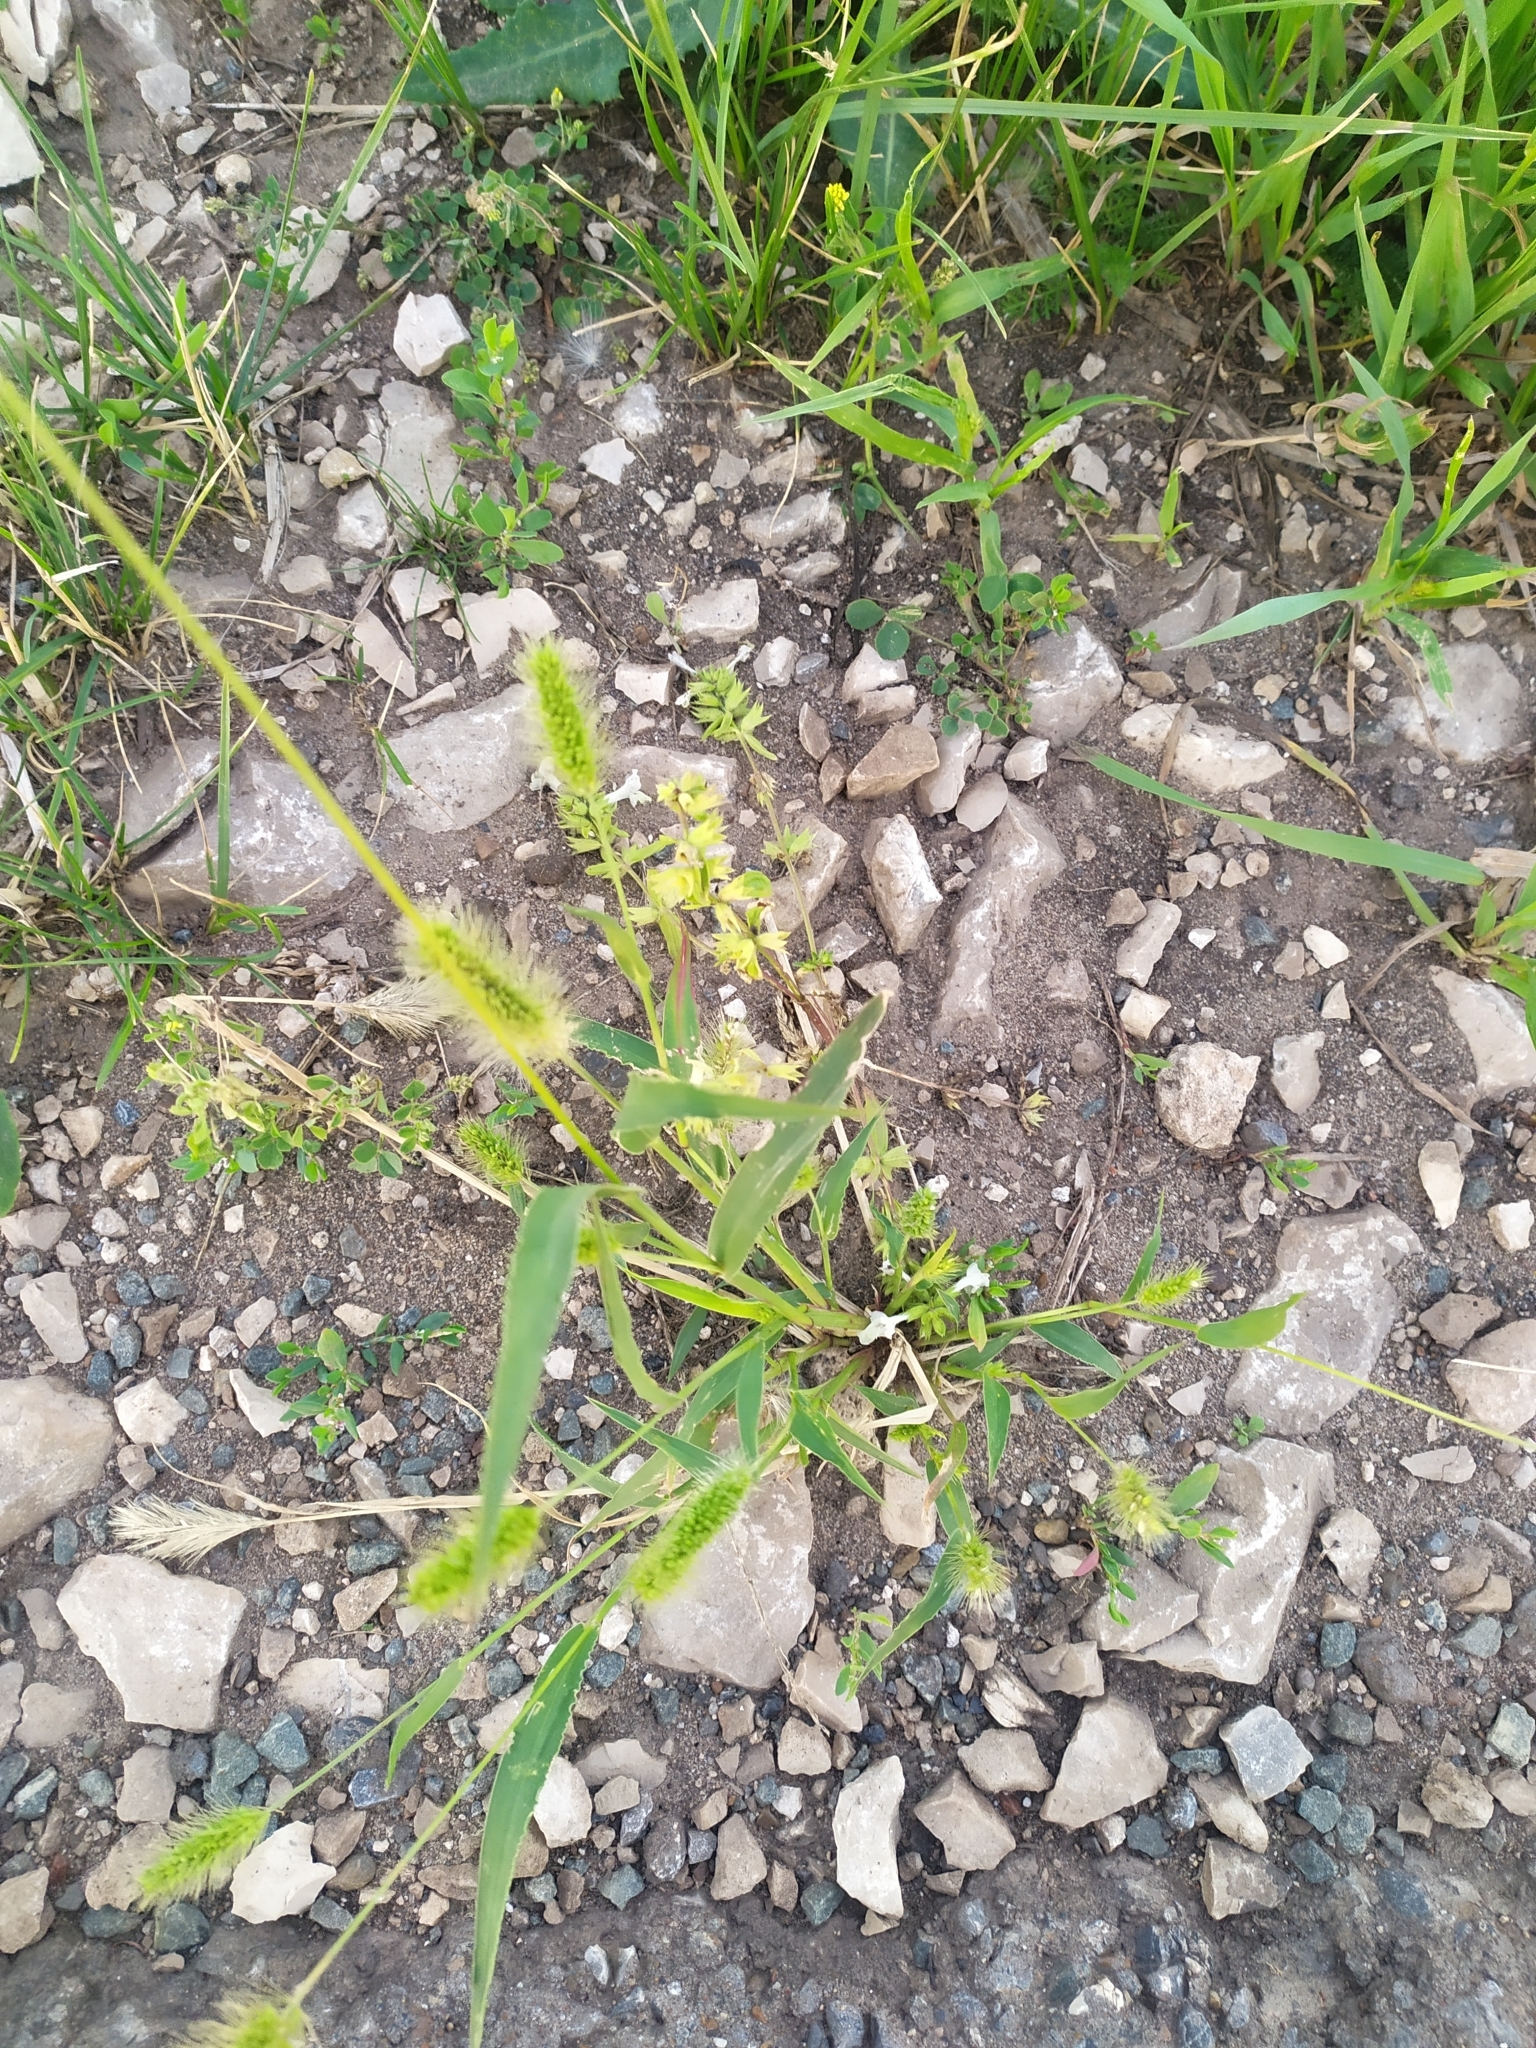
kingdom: Plantae
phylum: Tracheophyta
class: Liliopsida
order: Poales
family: Poaceae
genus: Setaria
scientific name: Setaria viridis
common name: Green bristlegrass
